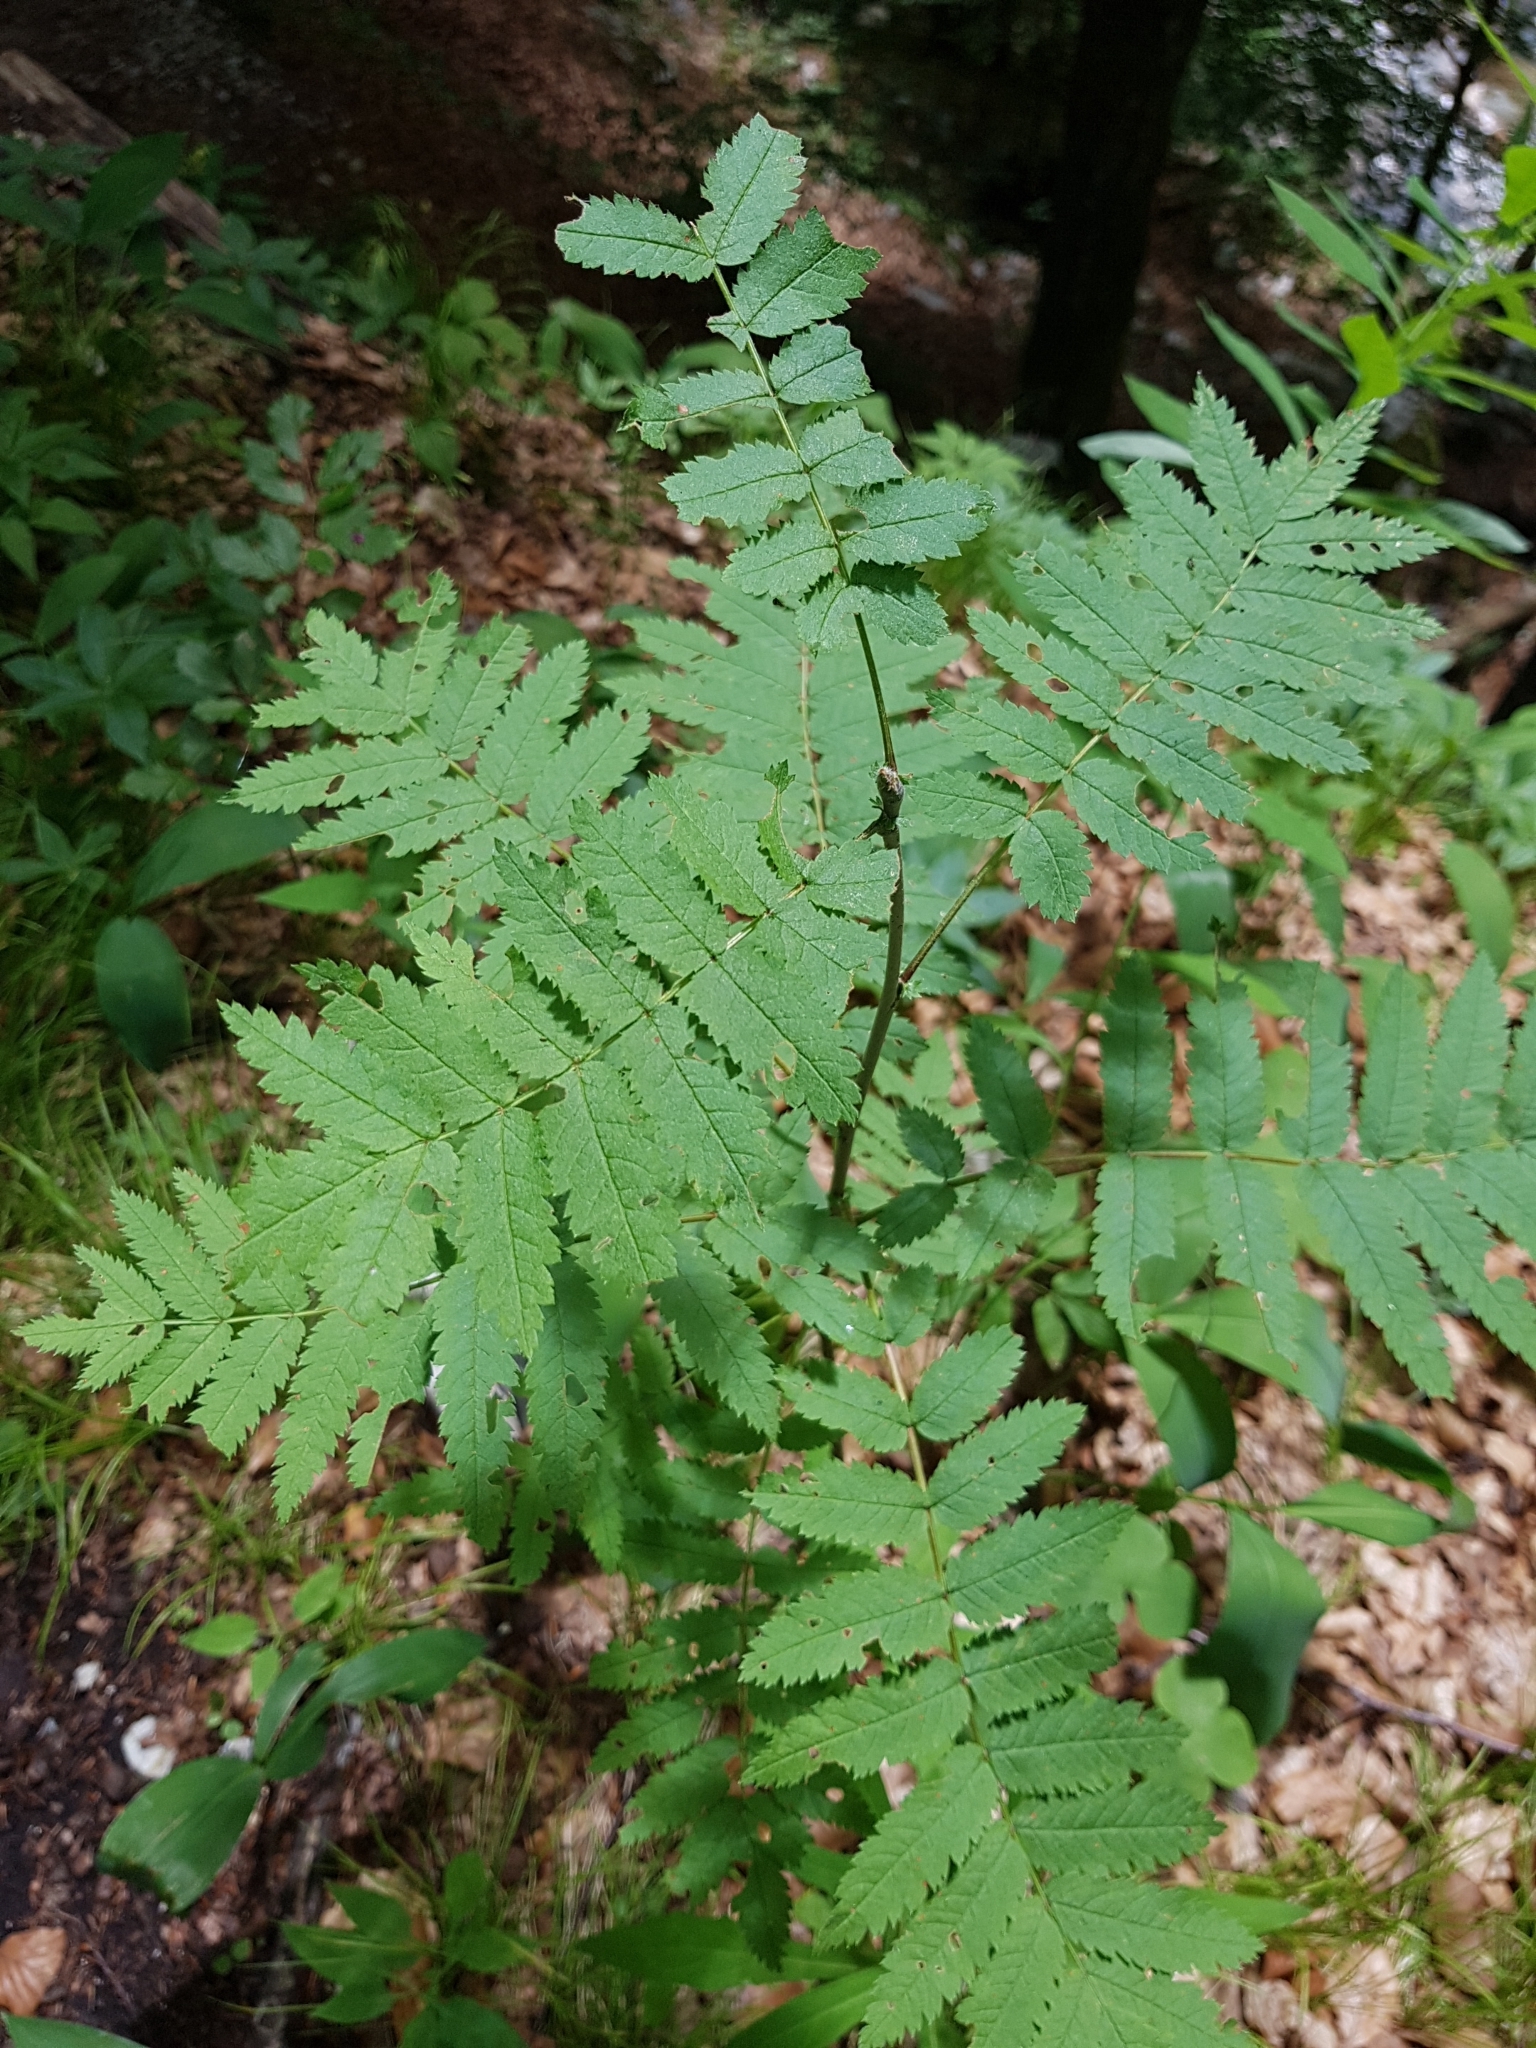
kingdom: Plantae
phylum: Tracheophyta
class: Magnoliopsida
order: Rosales
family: Rosaceae
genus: Sorbus
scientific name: Sorbus aucuparia
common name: Rowan
